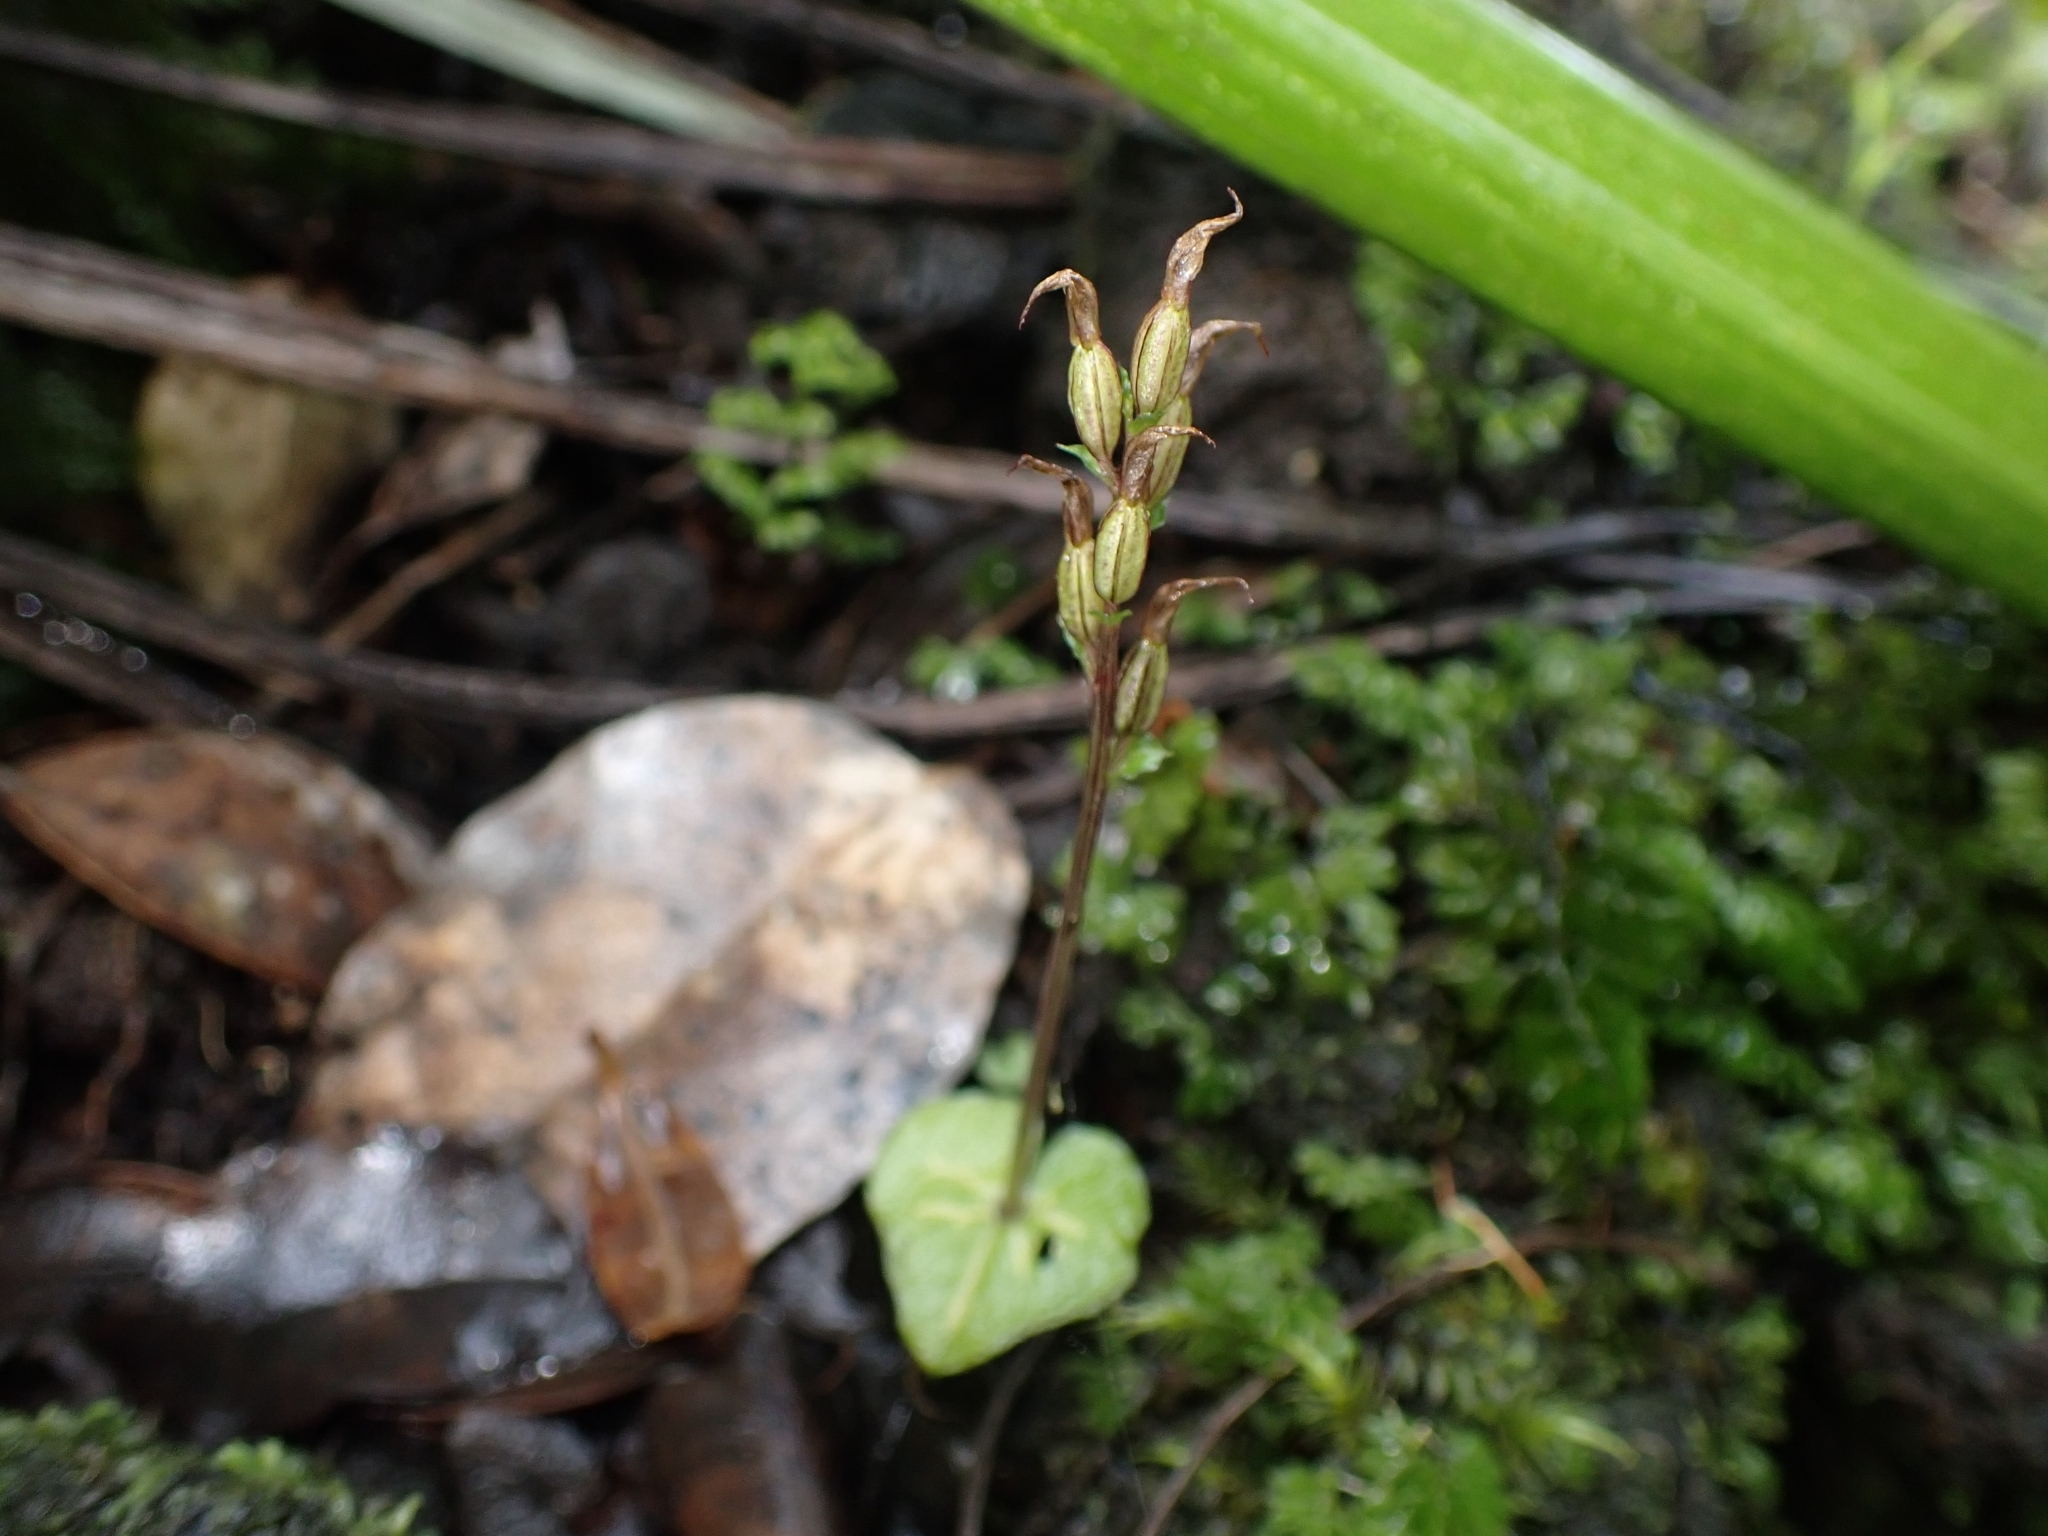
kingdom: Plantae
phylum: Tracheophyta
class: Liliopsida
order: Asparagales
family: Orchidaceae
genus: Acianthus
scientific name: Acianthus sinclairii
